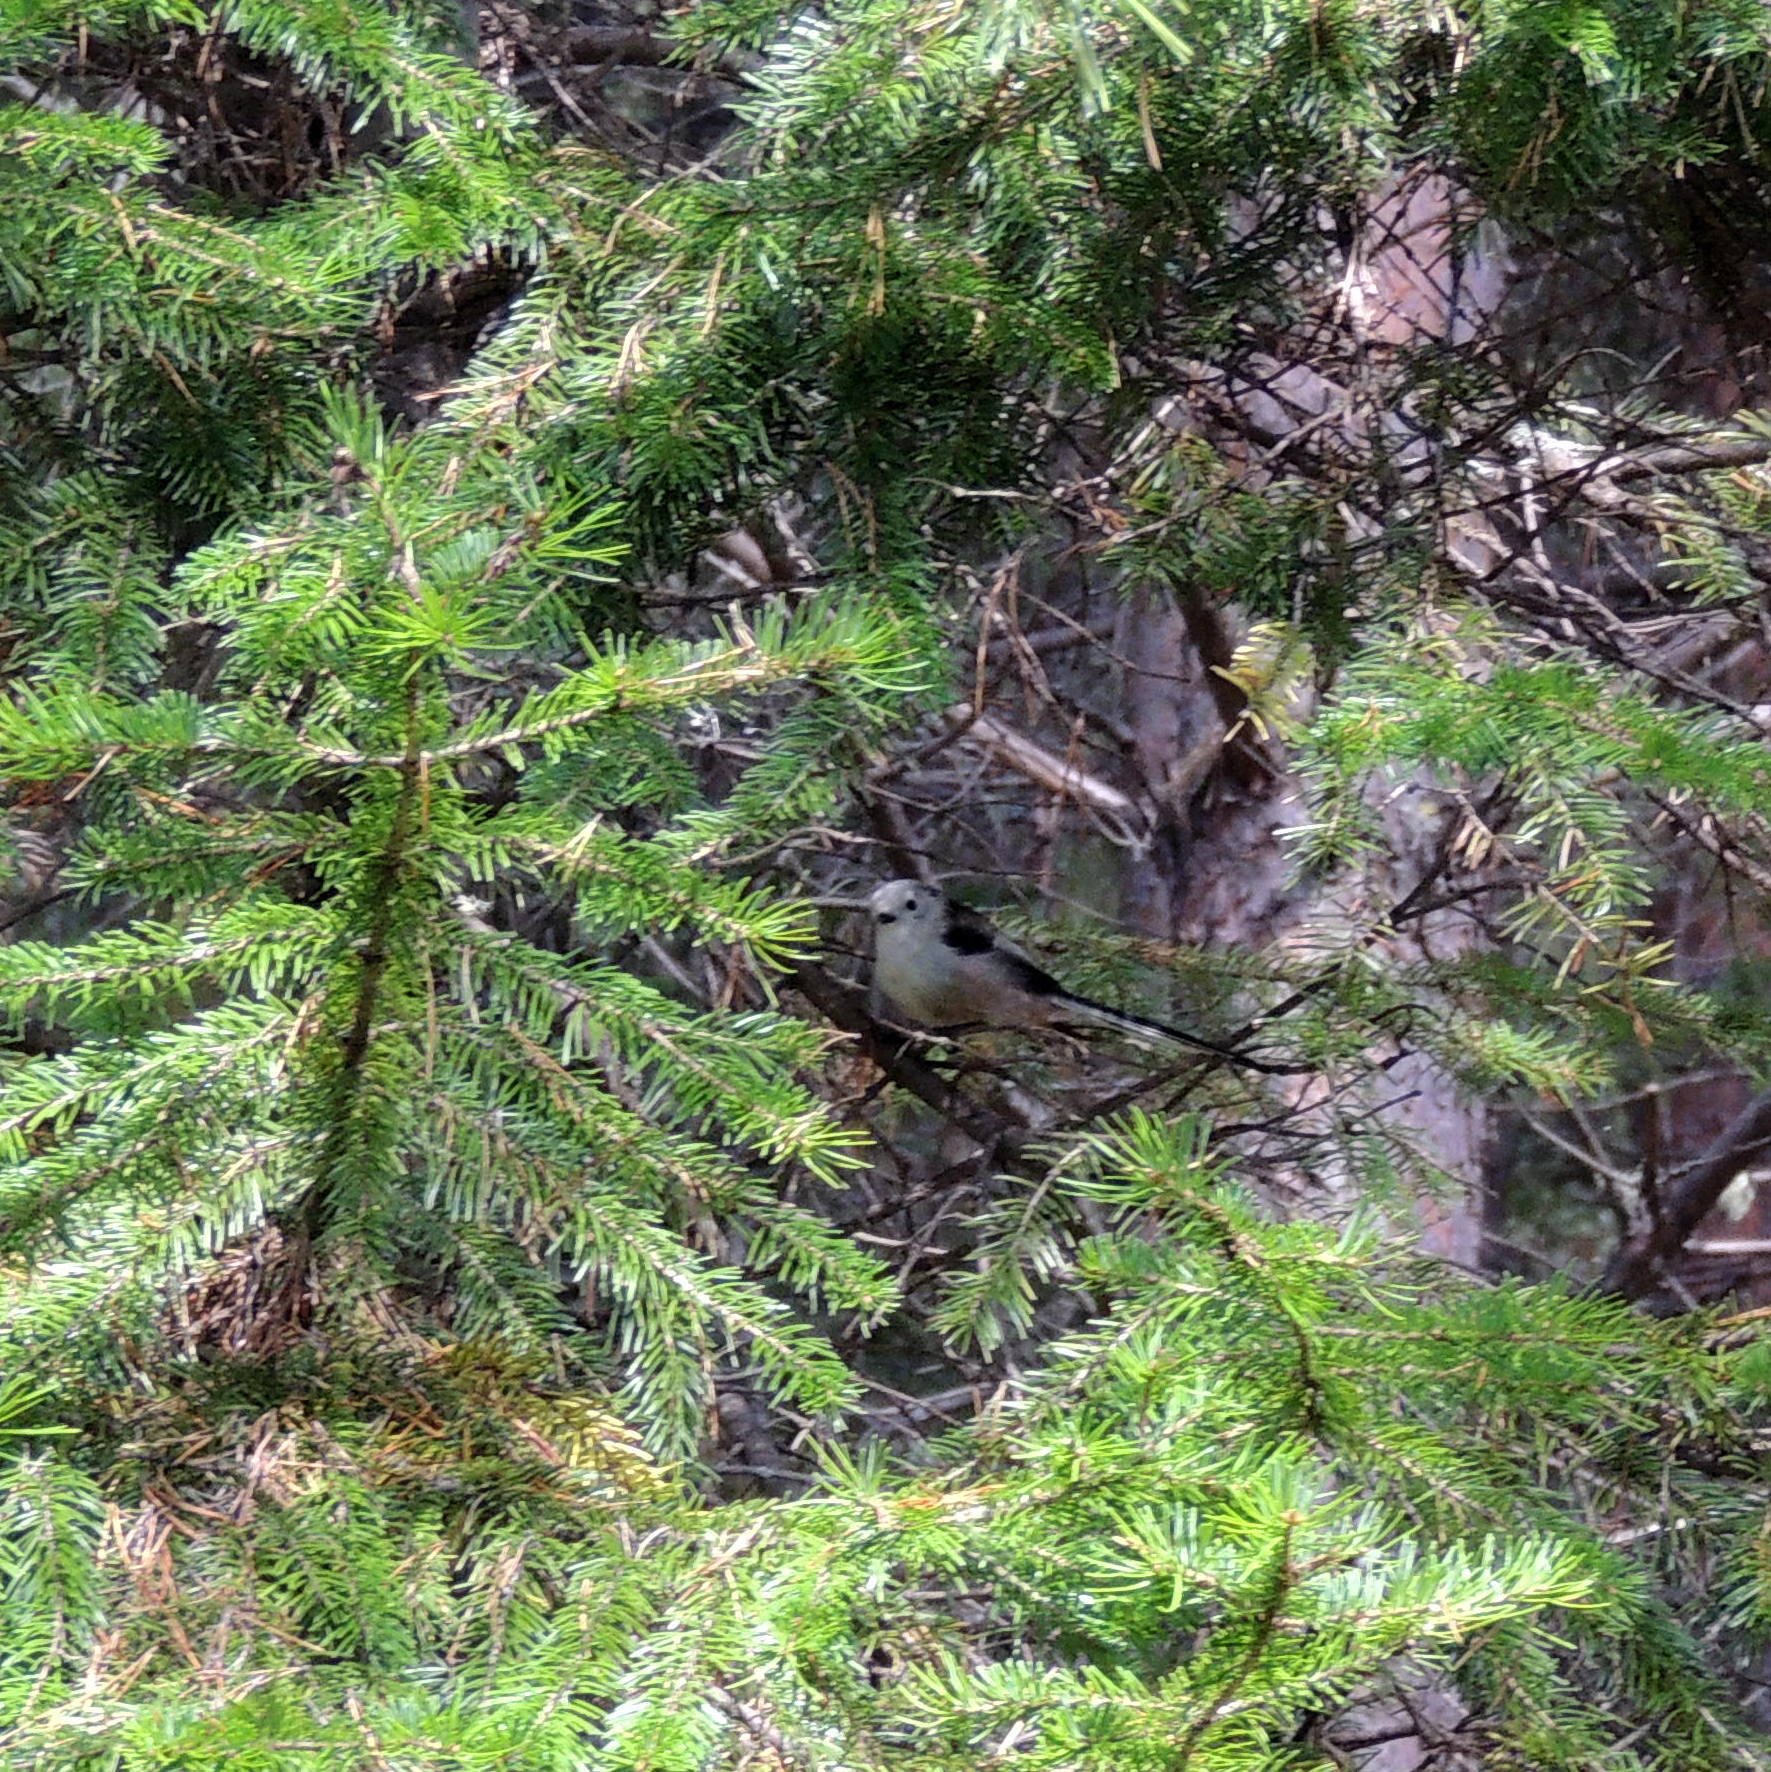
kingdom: Animalia
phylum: Chordata
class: Aves
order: Passeriformes
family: Aegithalidae
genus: Aegithalos
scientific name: Aegithalos caudatus
